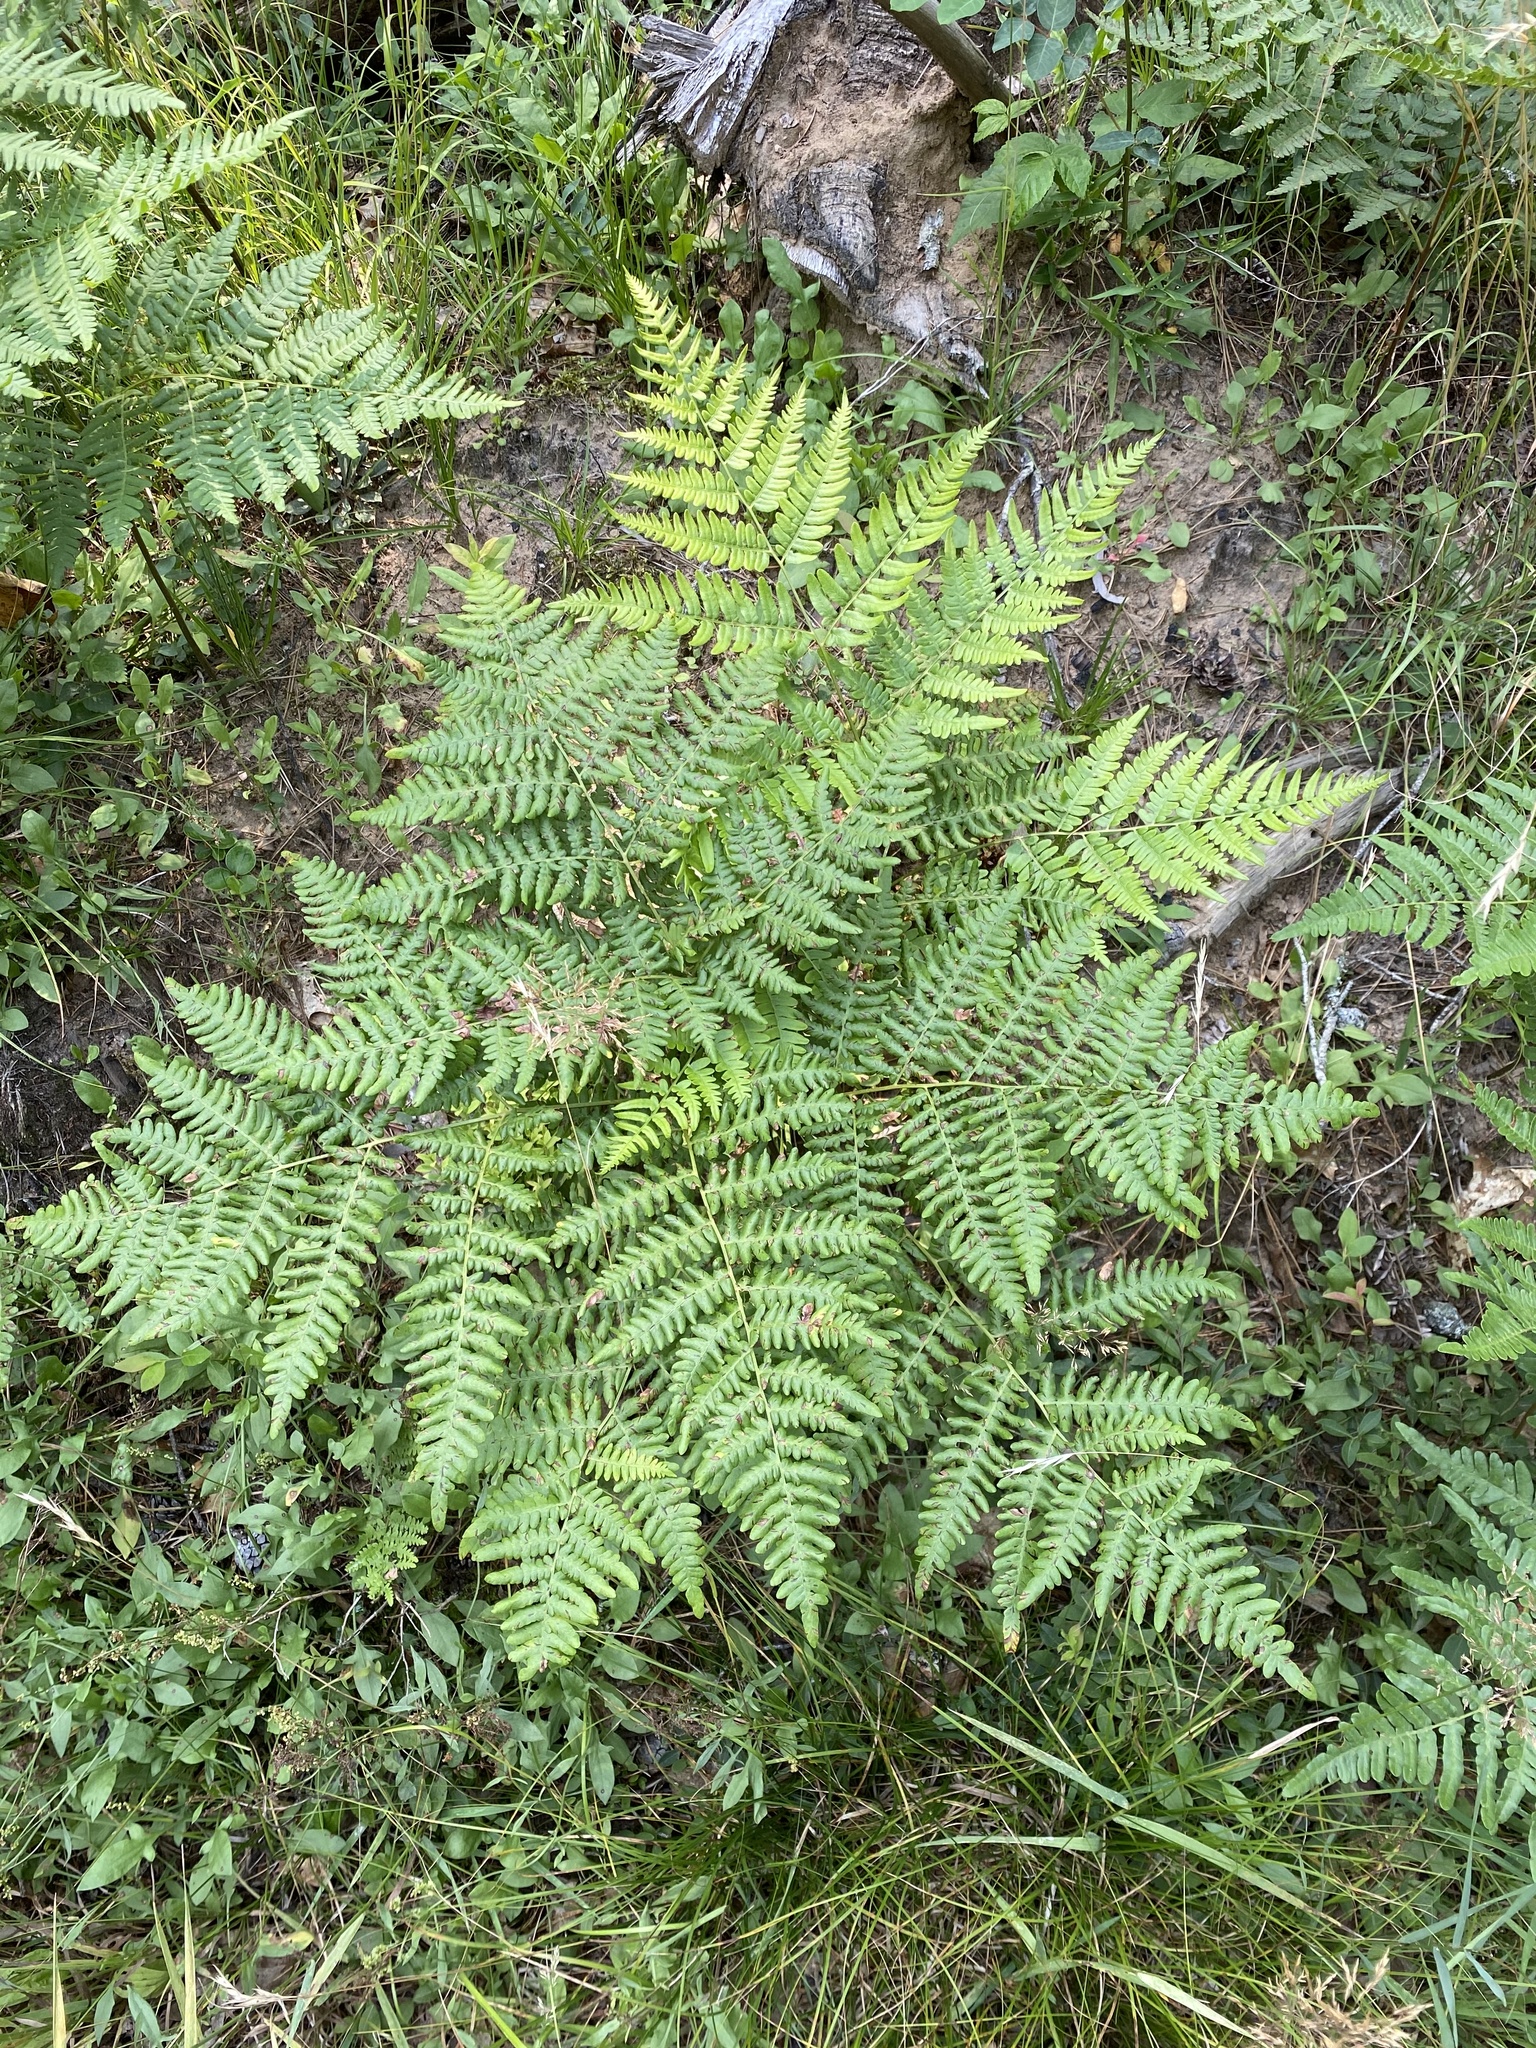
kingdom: Plantae
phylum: Tracheophyta
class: Polypodiopsida
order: Polypodiales
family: Dennstaedtiaceae
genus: Pteridium
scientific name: Pteridium aquilinum
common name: Bracken
